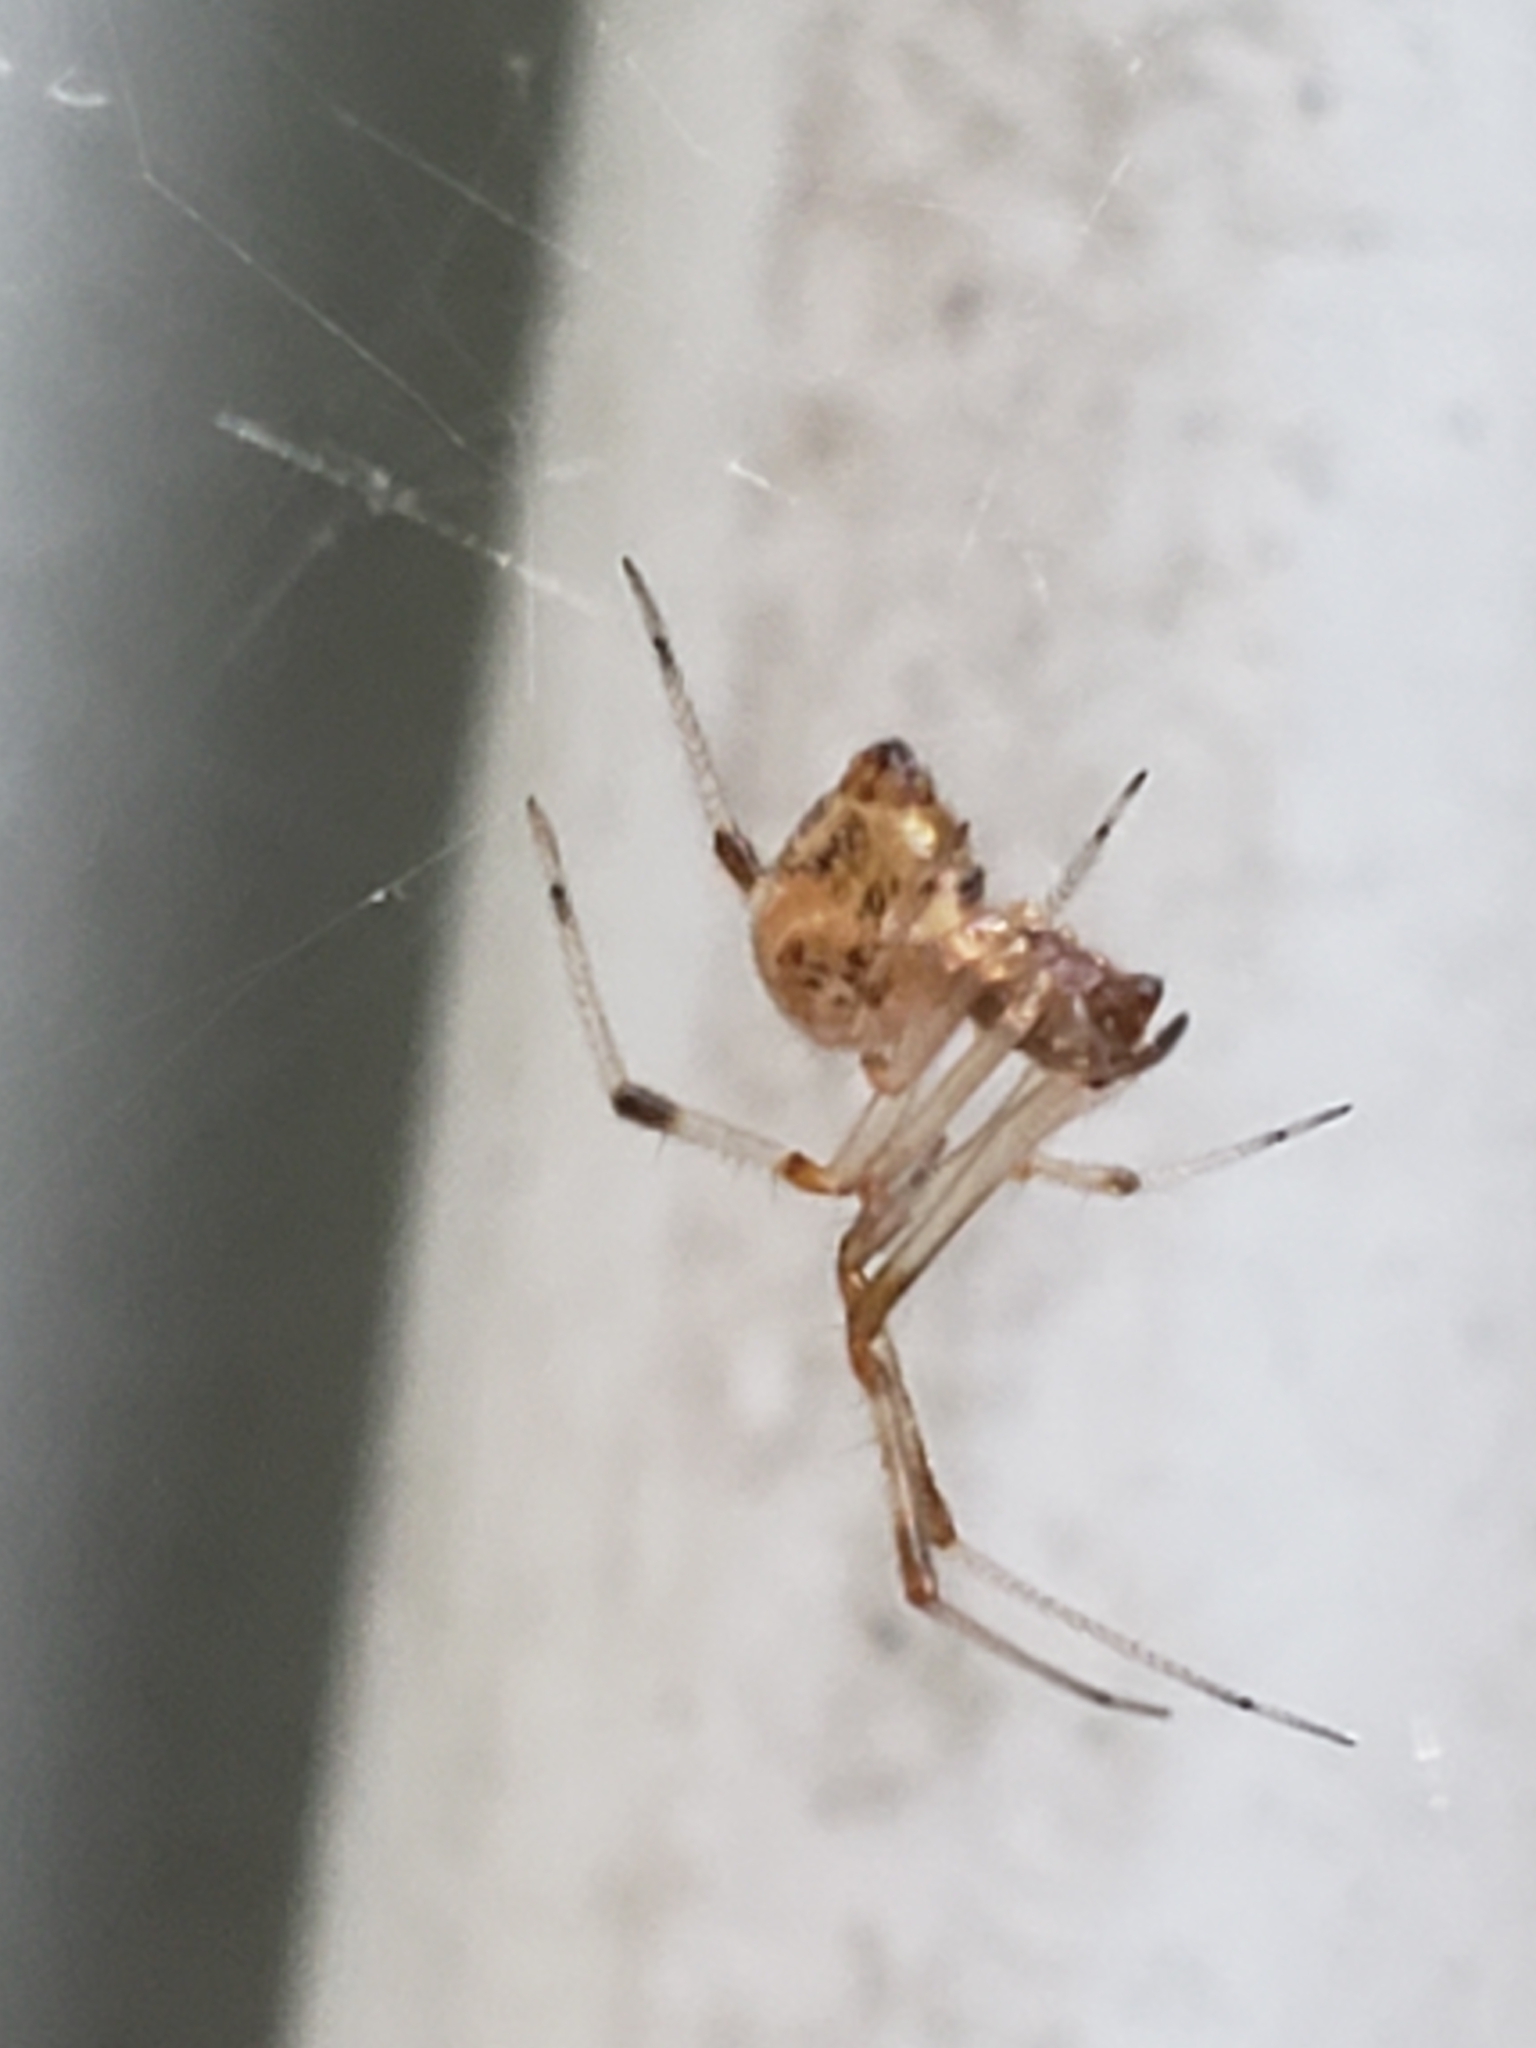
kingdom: Animalia
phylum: Arthropoda
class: Arachnida
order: Araneae
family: Theridiidae
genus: Parasteatoda
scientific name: Parasteatoda tepidariorum
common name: Common house spider
